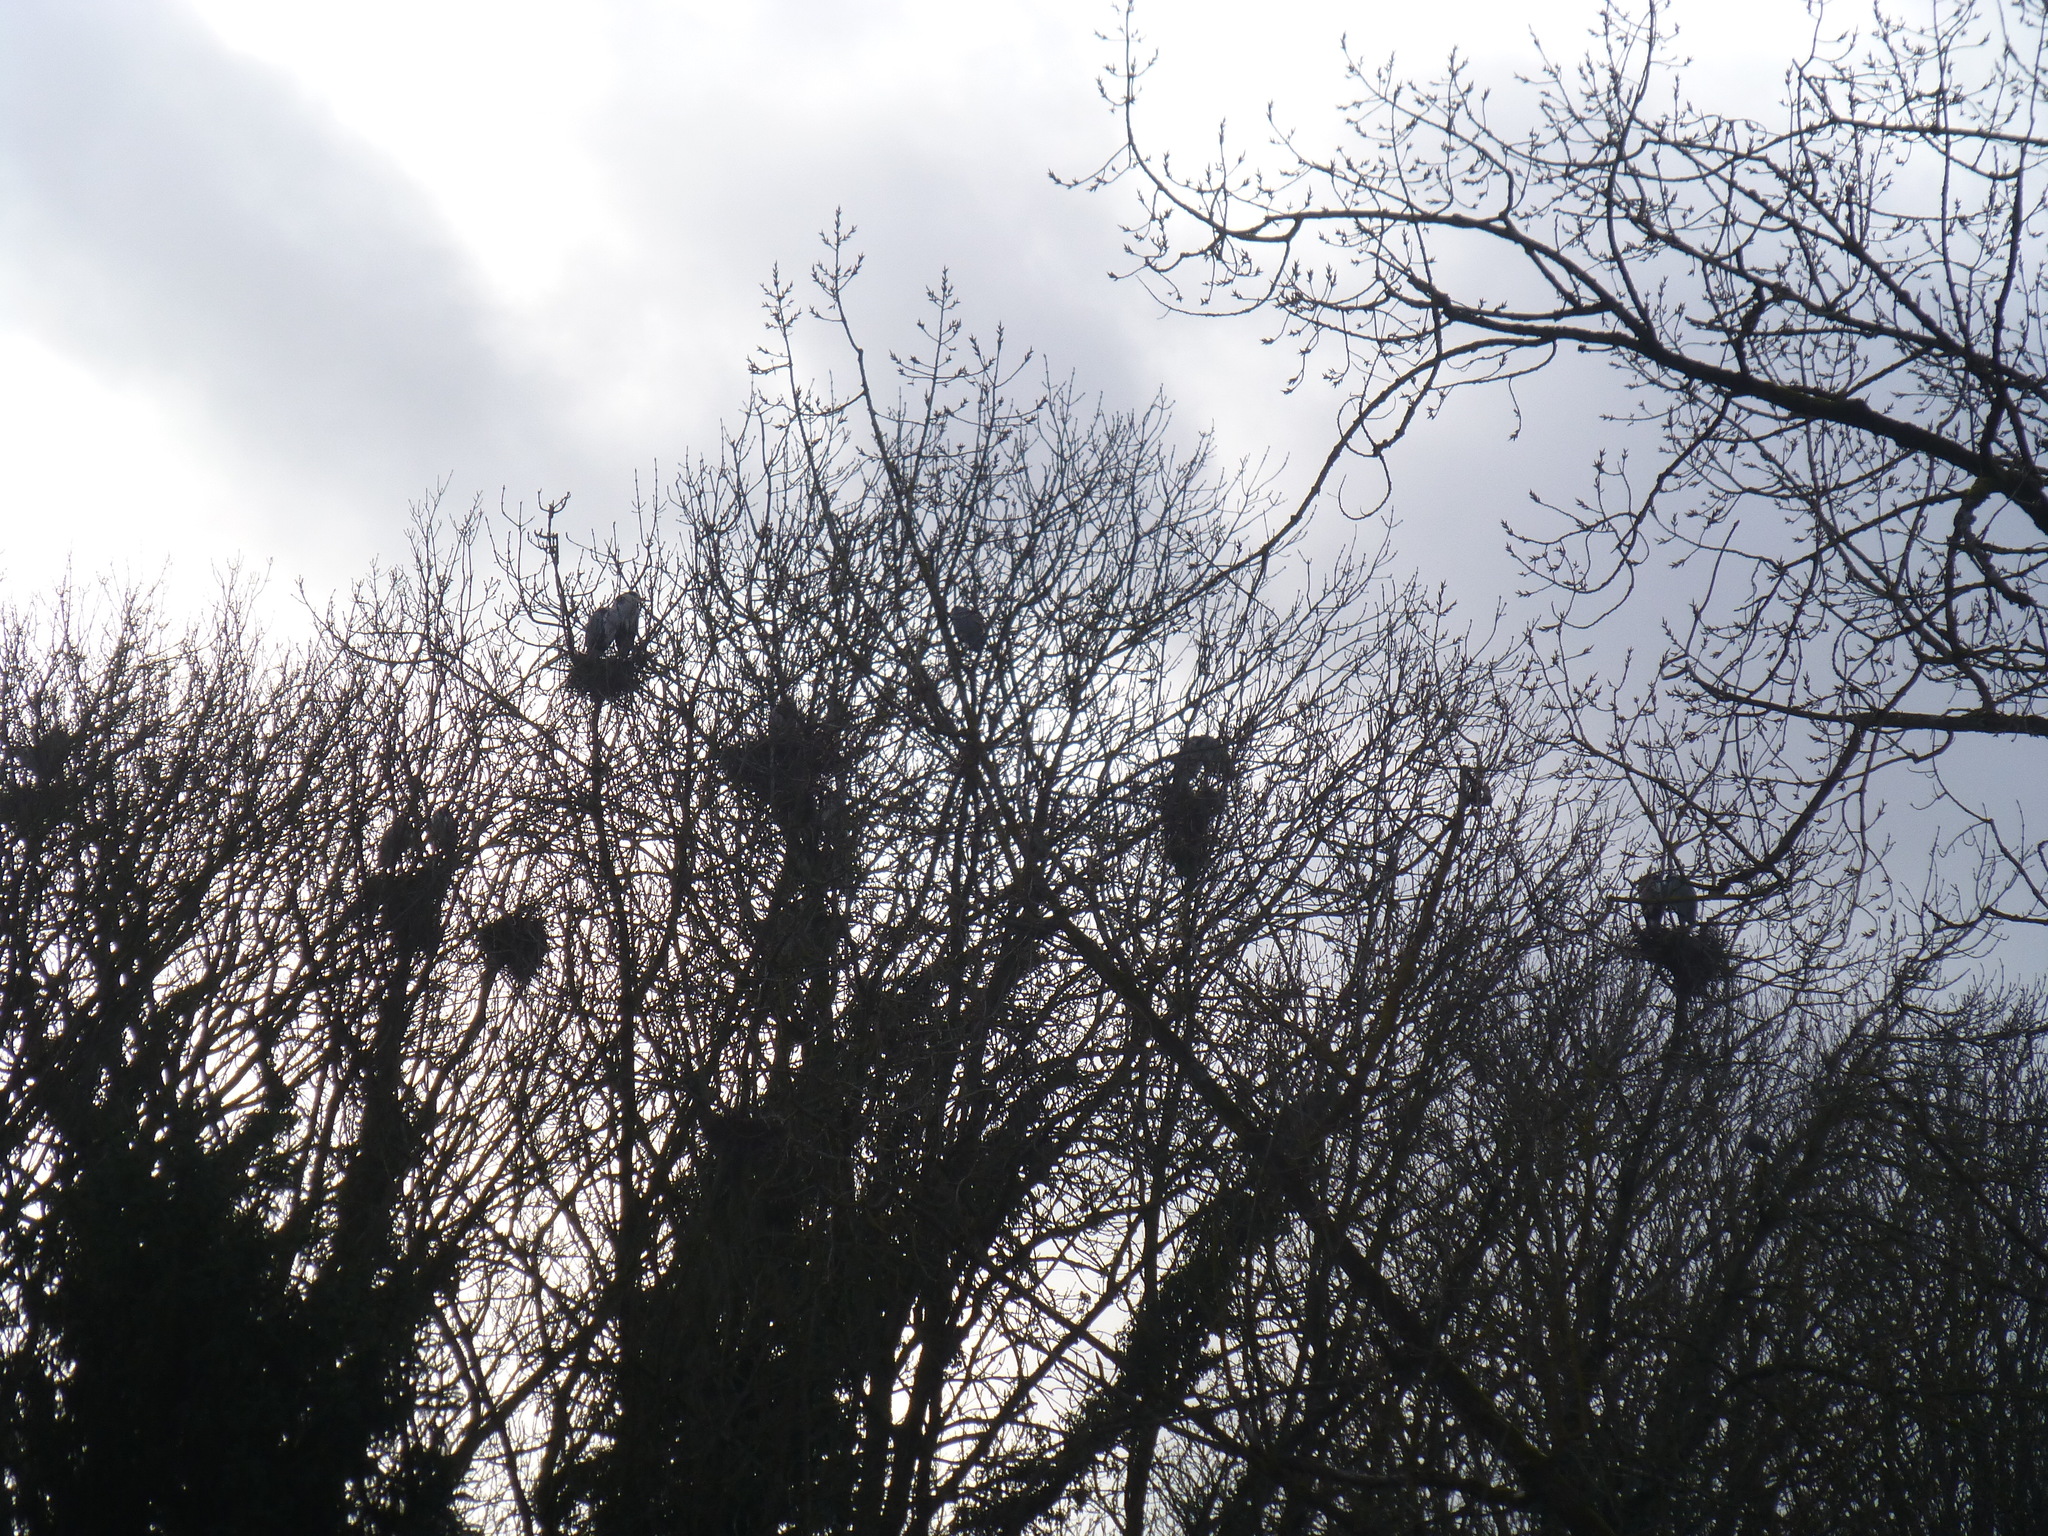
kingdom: Animalia
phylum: Chordata
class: Aves
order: Pelecaniformes
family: Ardeidae
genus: Ardea
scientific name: Ardea cinerea
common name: Grey heron
